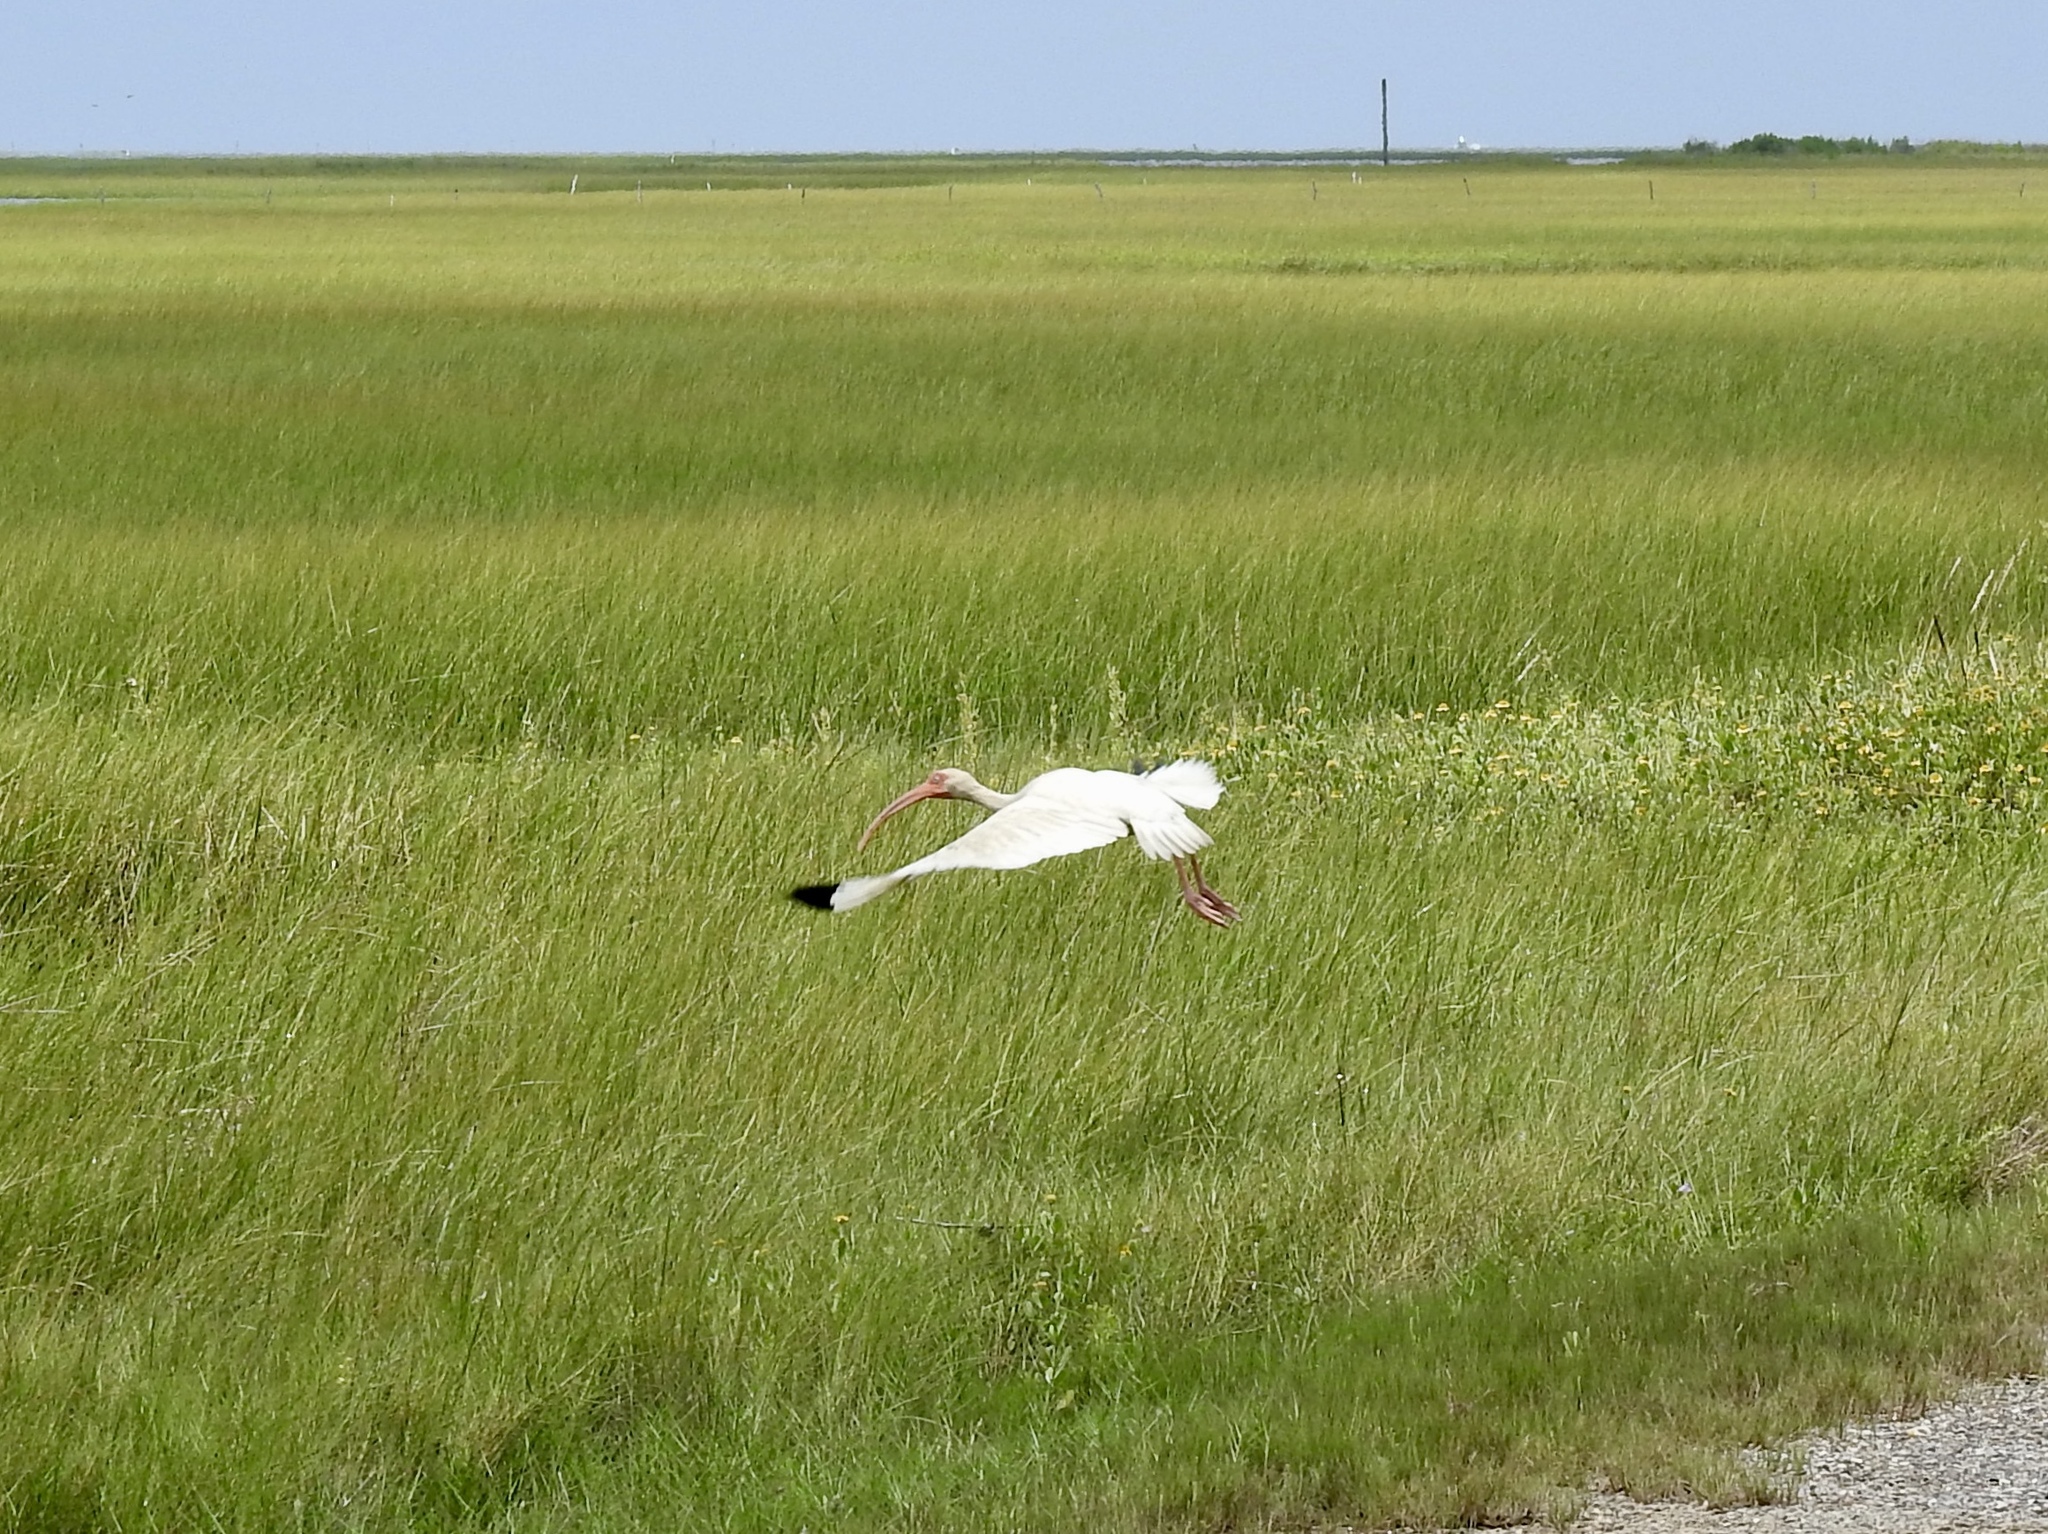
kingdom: Animalia
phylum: Chordata
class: Aves
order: Pelecaniformes
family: Threskiornithidae
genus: Eudocimus
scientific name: Eudocimus albus
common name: White ibis
